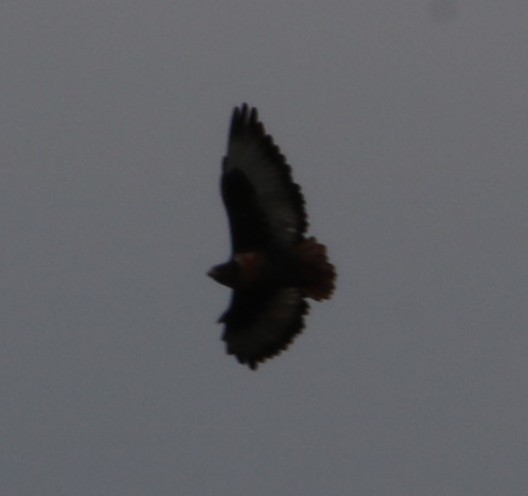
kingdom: Animalia
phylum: Chordata
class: Aves
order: Accipitriformes
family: Accipitridae
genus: Buteo
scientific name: Buteo rufofuscus
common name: Jackal buzzard
